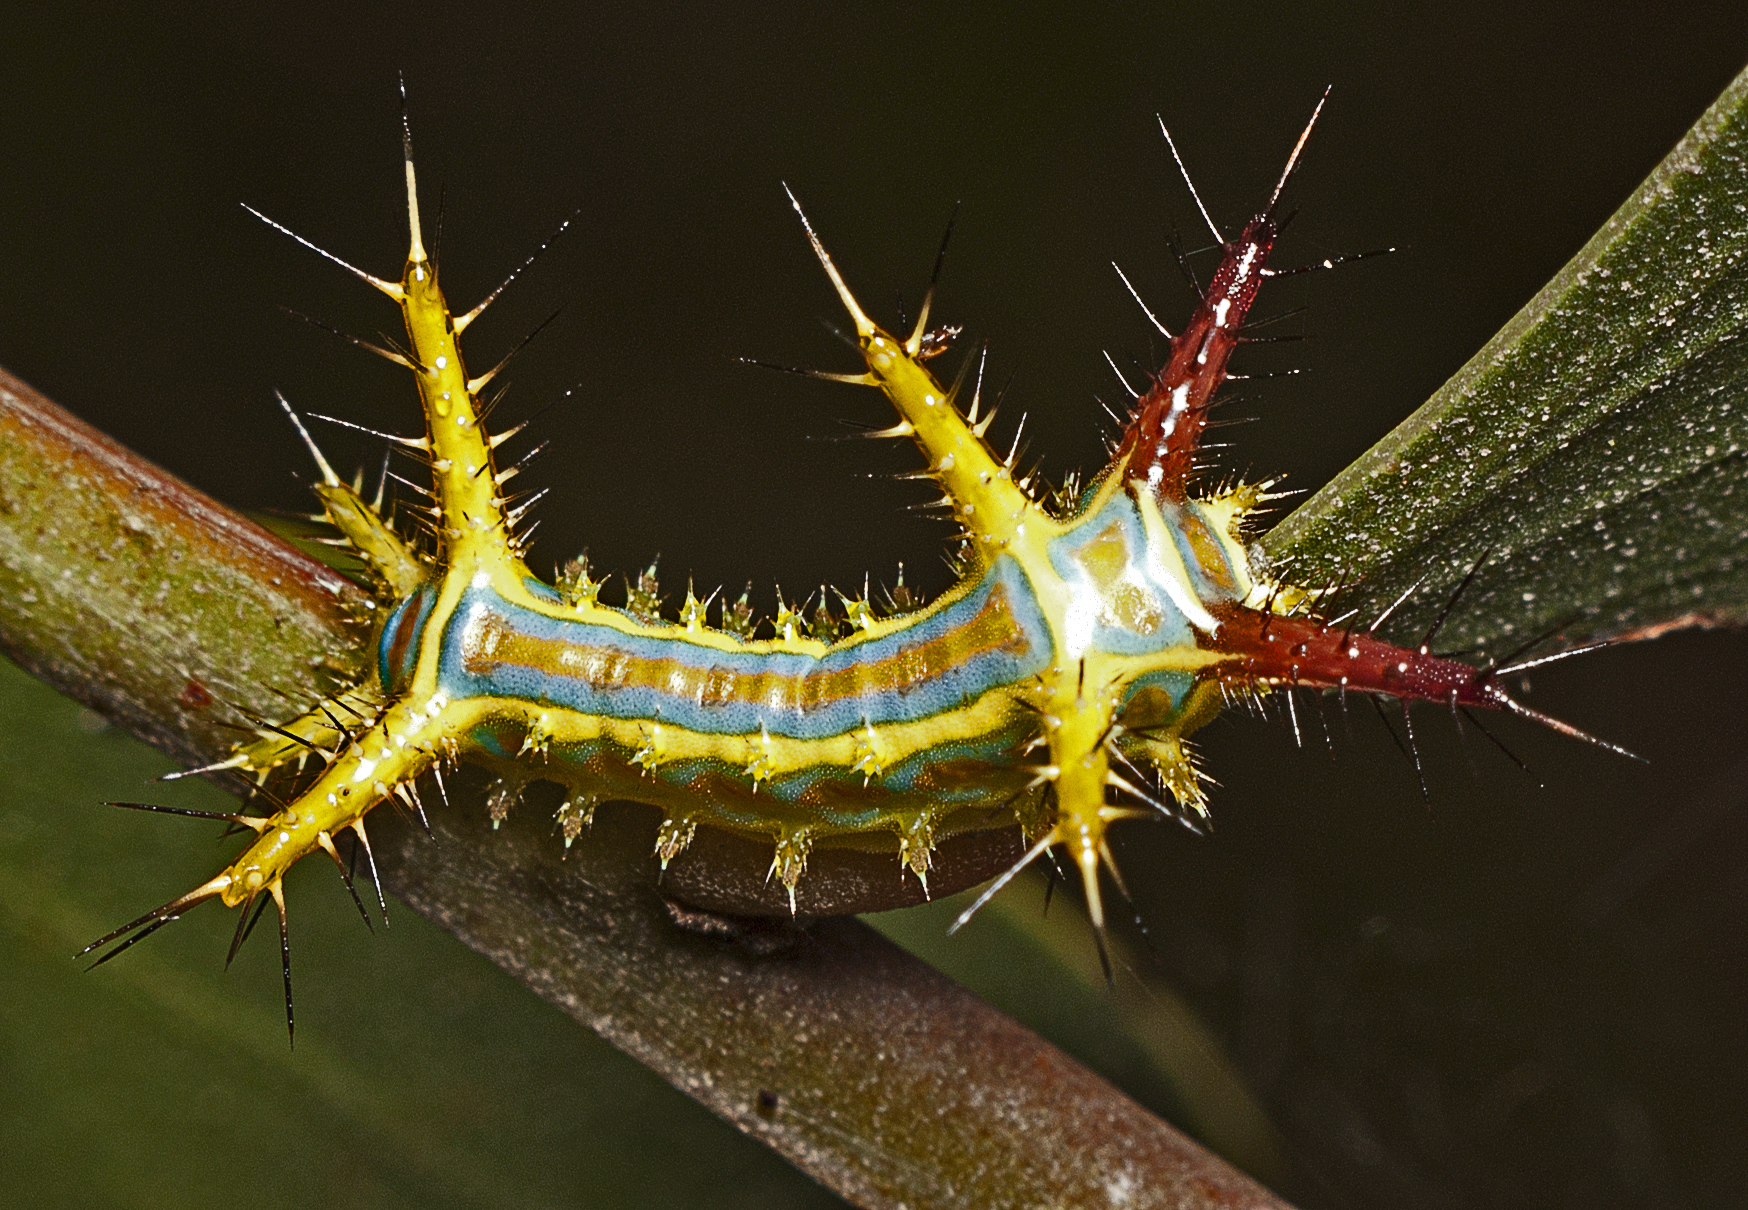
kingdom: Animalia
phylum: Arthropoda
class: Insecta
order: Lepidoptera
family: Limacodidae
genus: Comana
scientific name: Comana albibasis
